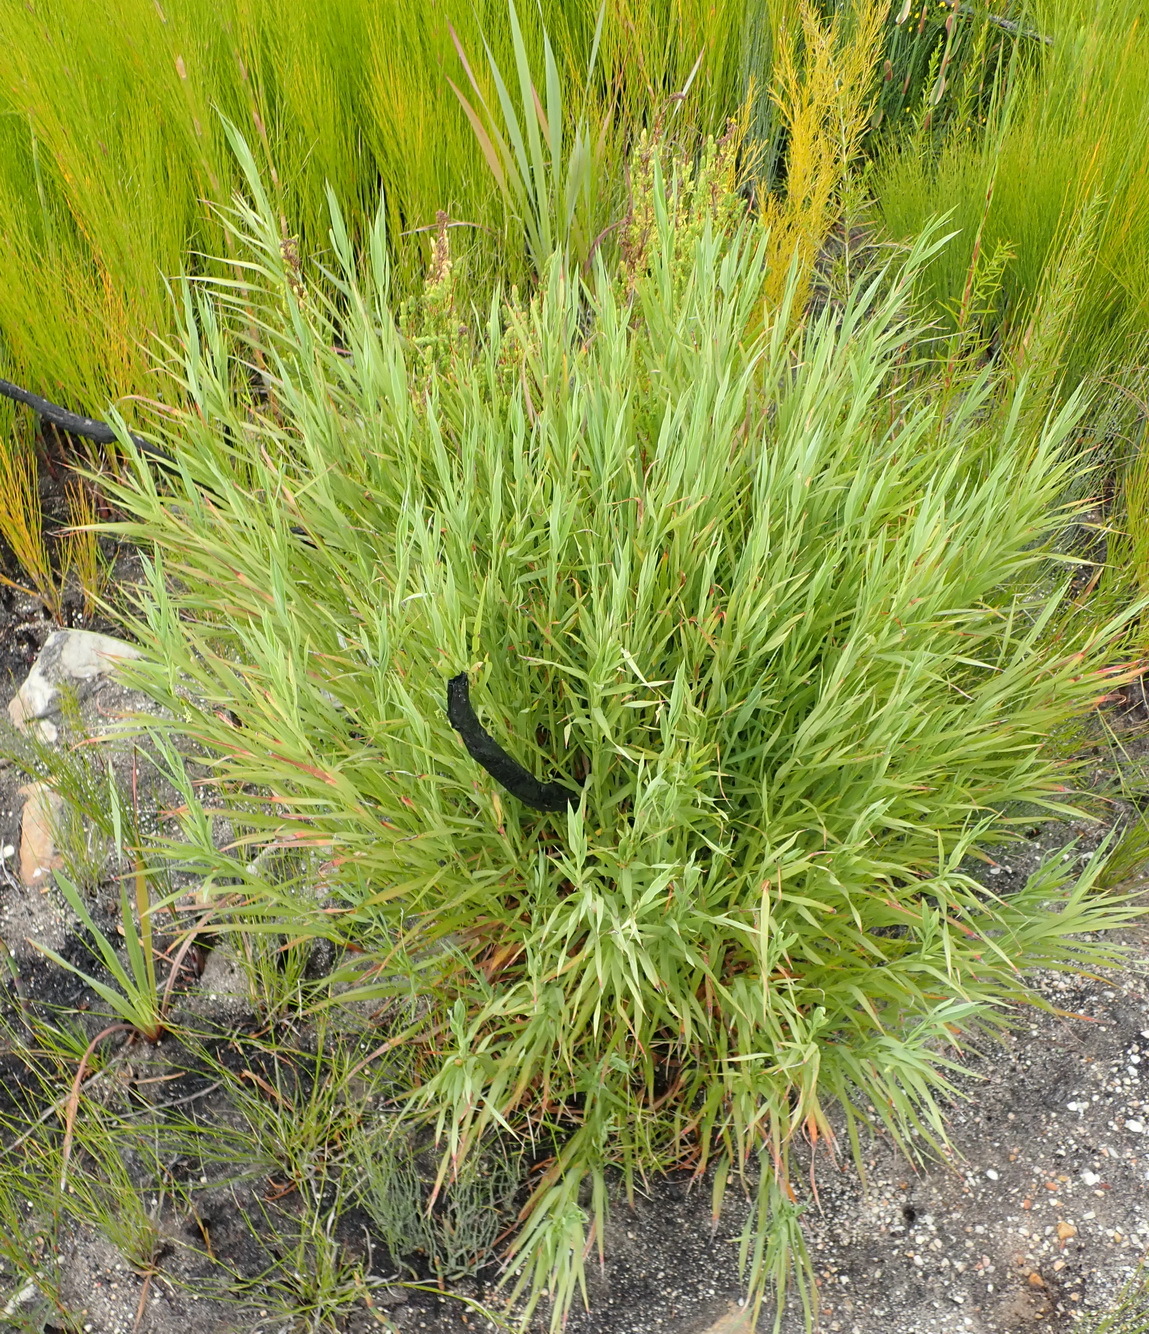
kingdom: Plantae
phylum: Tracheophyta
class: Magnoliopsida
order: Rosales
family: Rosaceae
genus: Cliffortia
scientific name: Cliffortia graminea
